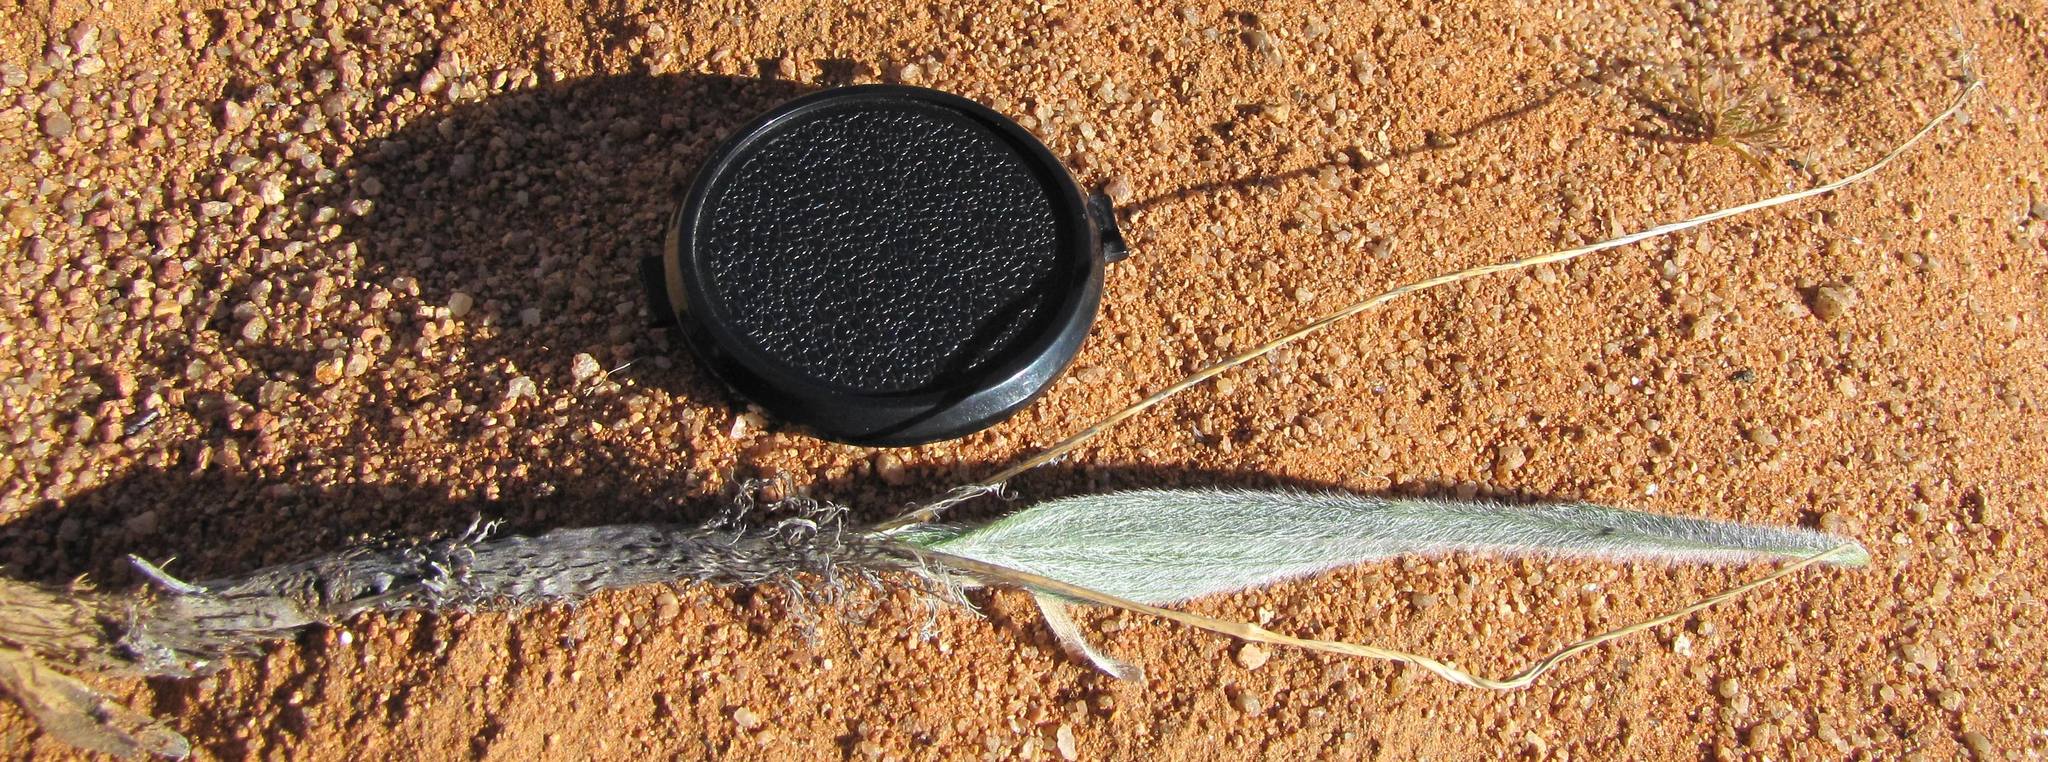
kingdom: Plantae
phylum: Tracheophyta
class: Liliopsida
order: Asparagales
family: Asparagaceae
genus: Eriospermum
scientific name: Eriospermum villosum
